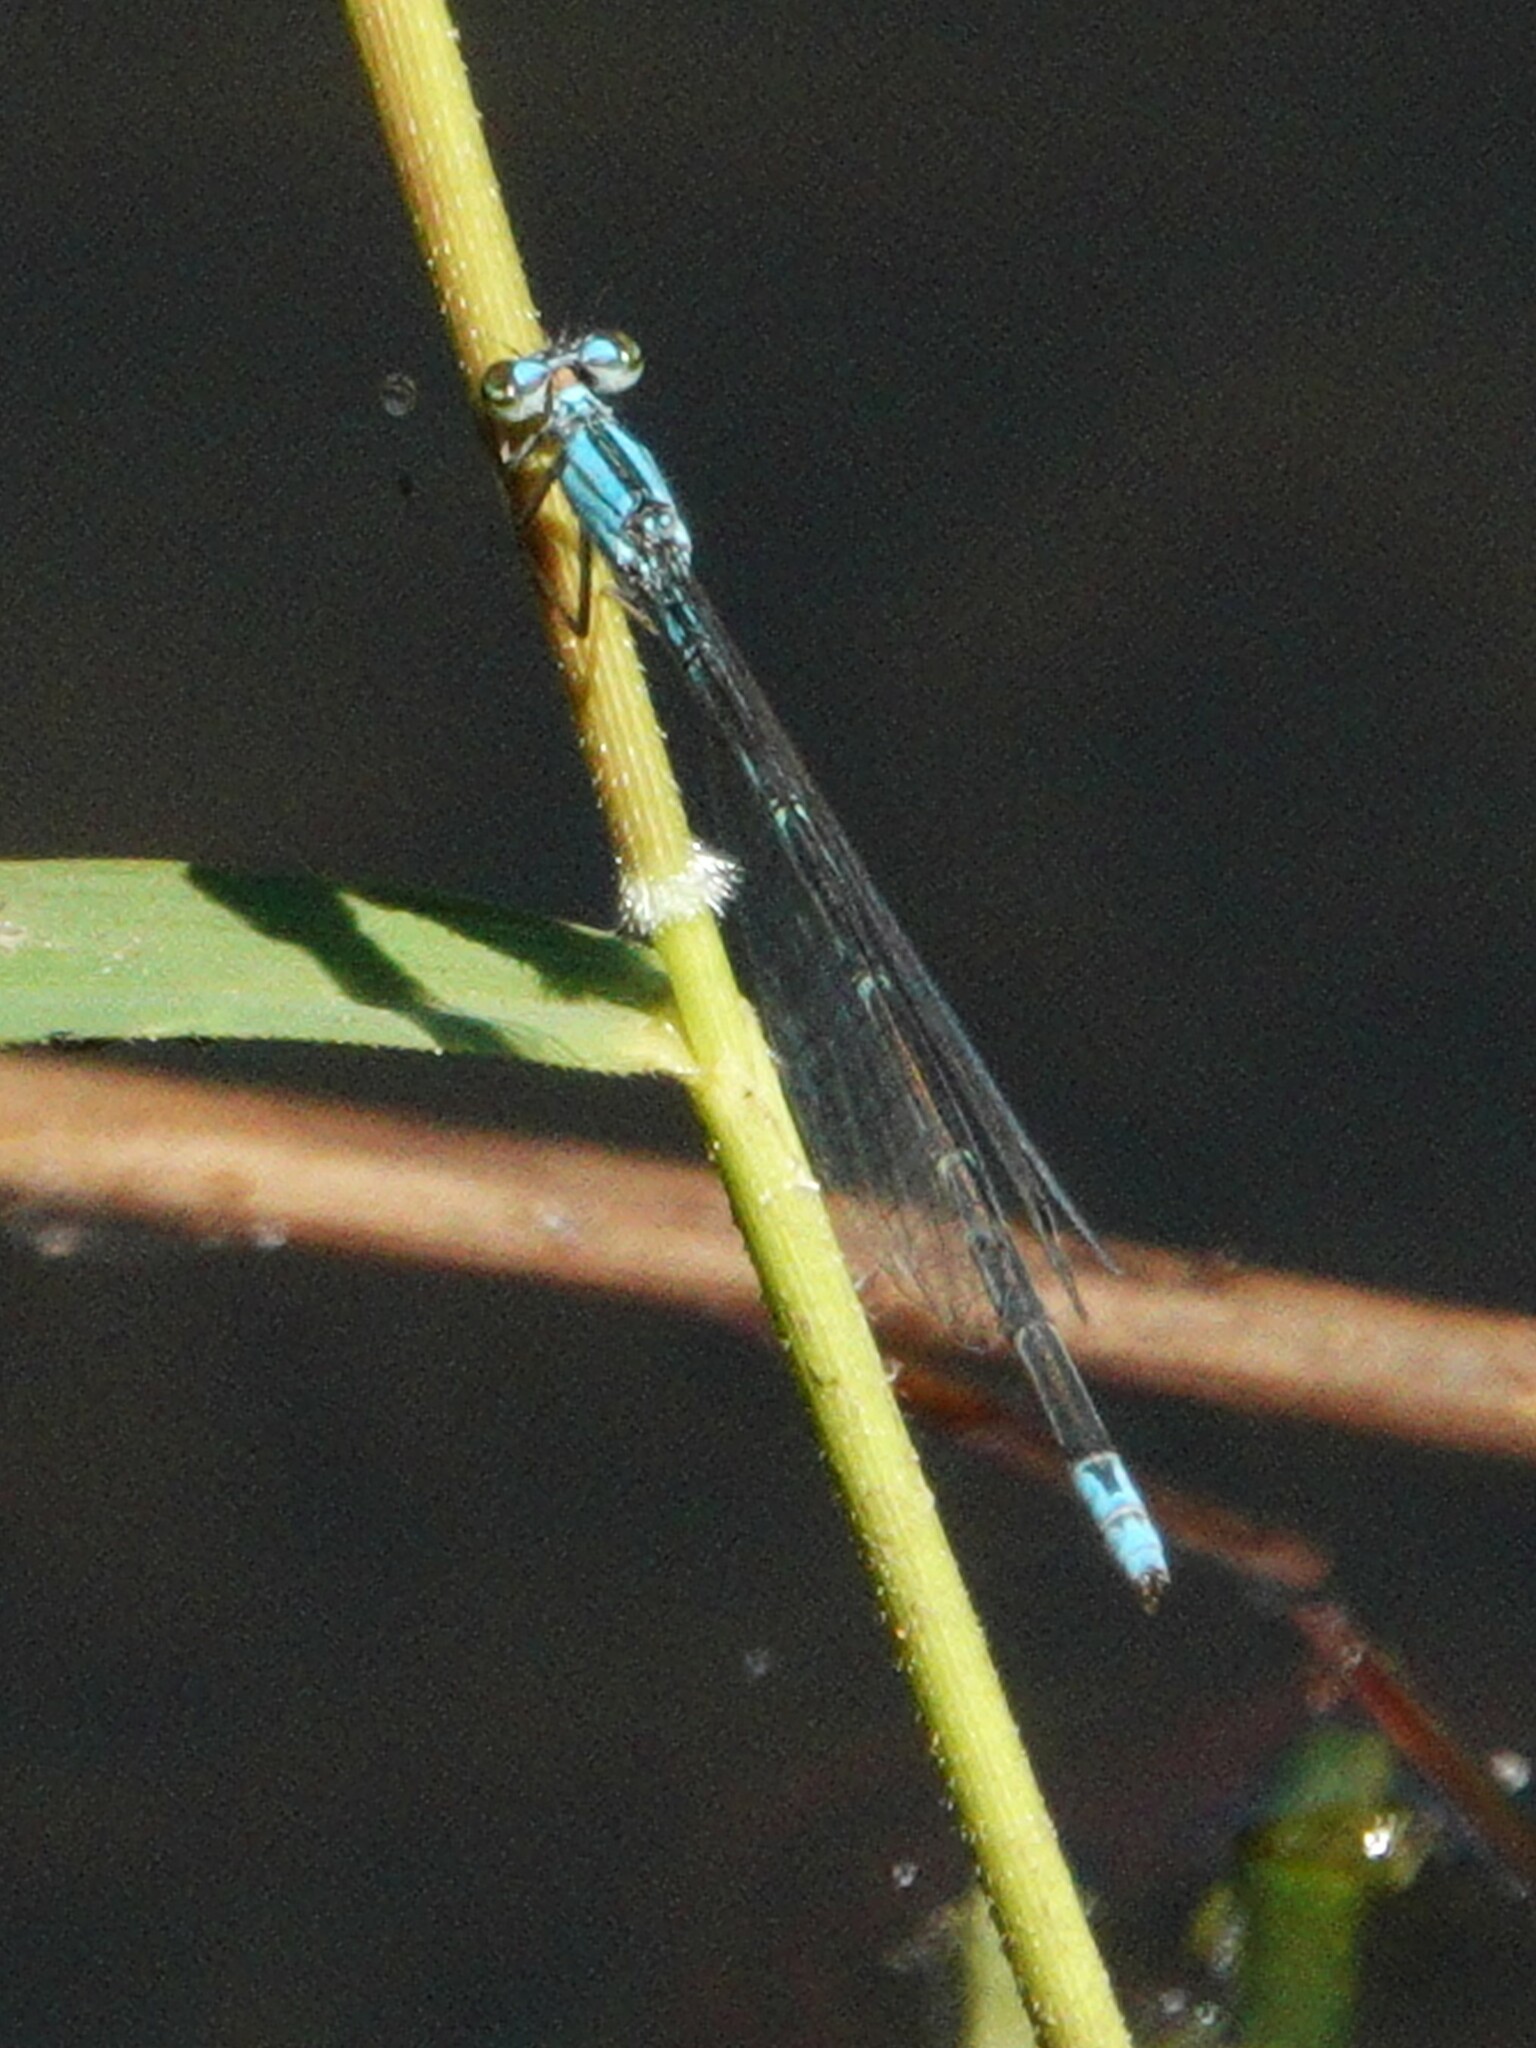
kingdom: Animalia
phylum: Arthropoda
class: Insecta
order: Odonata
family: Coenagrionidae
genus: Enallagma
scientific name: Enallagma traviatum
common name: Slender bluet
